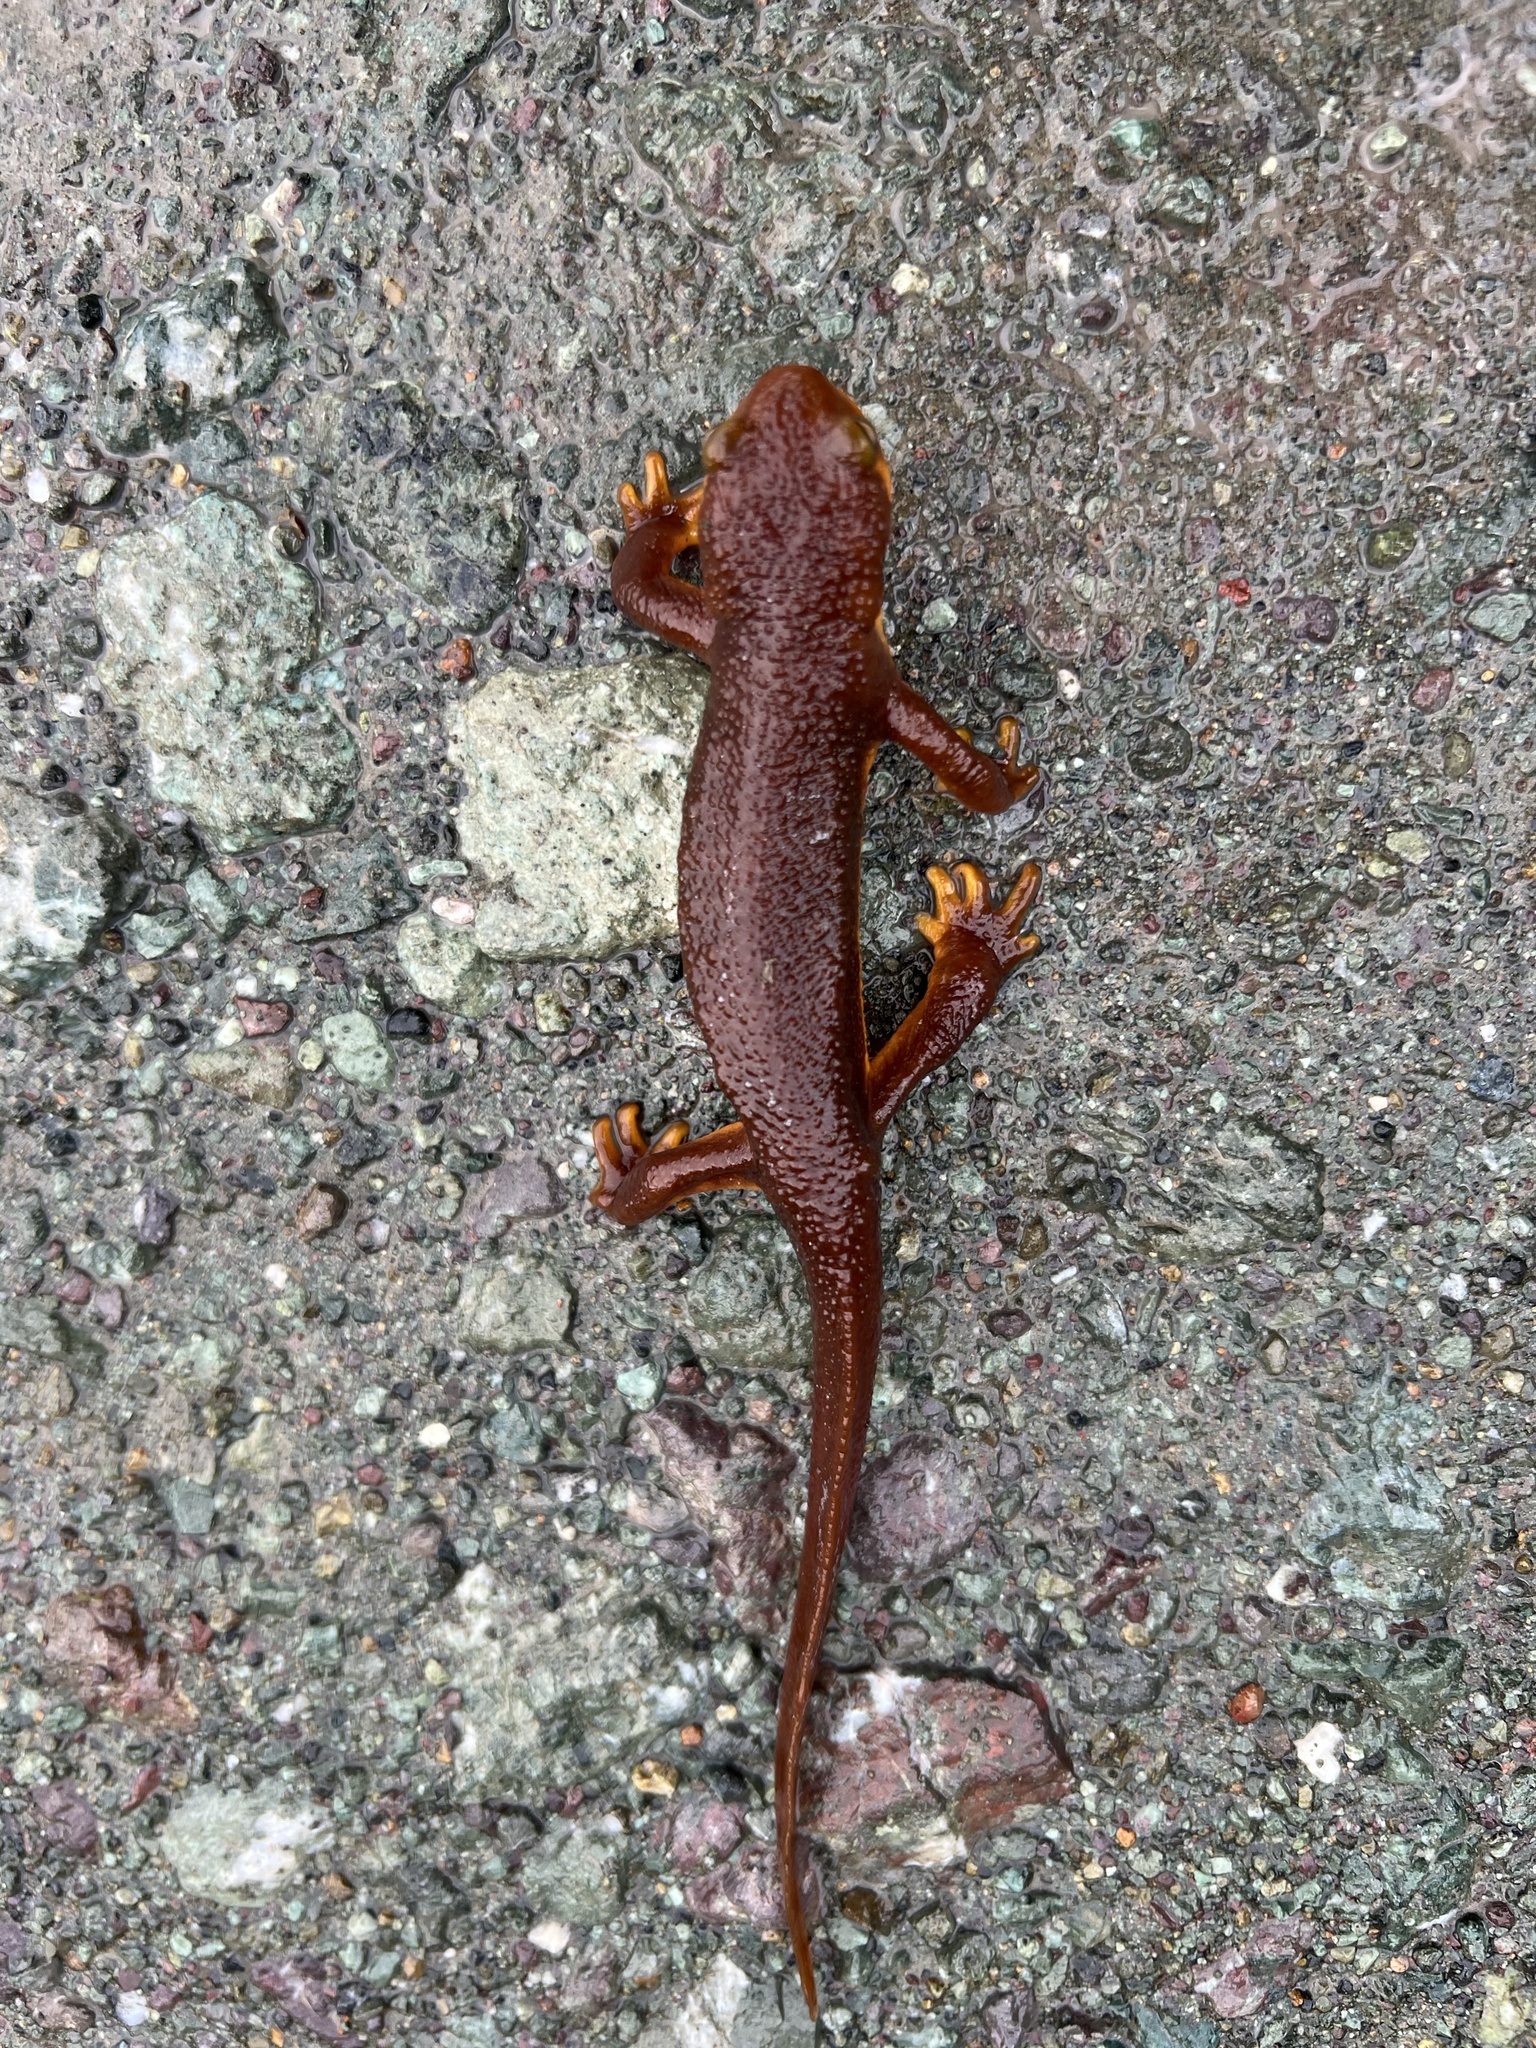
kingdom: Animalia
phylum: Chordata
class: Amphibia
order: Caudata
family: Salamandridae
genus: Taricha
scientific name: Taricha torosa
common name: California newt
